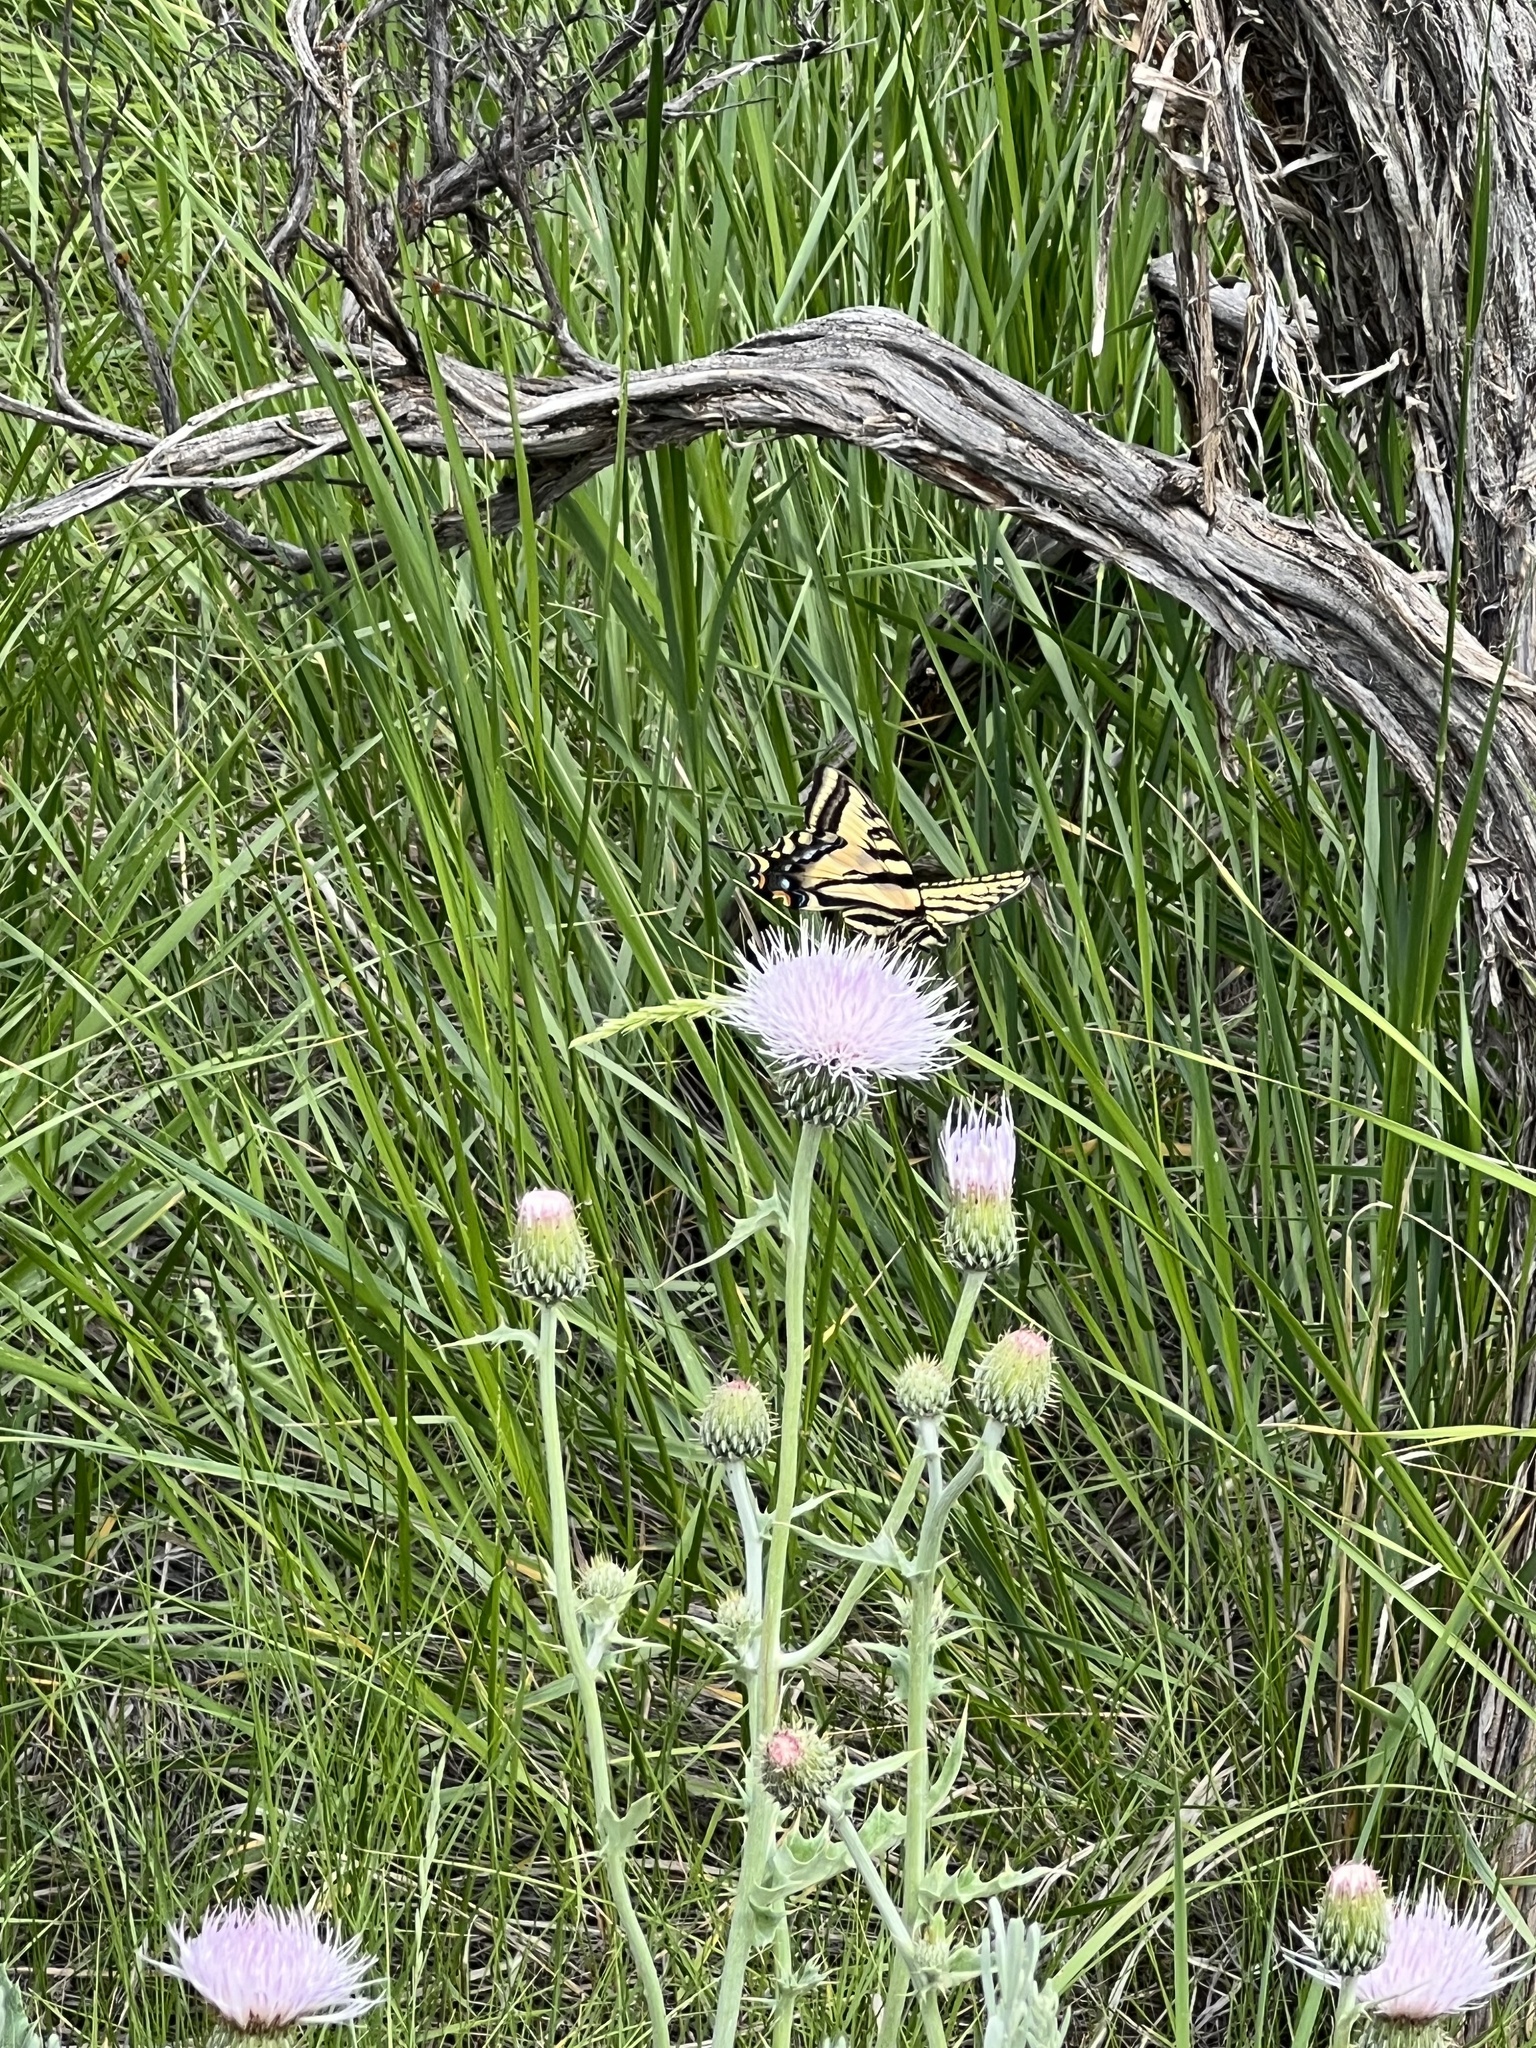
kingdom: Animalia
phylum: Arthropoda
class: Insecta
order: Lepidoptera
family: Papilionidae
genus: Papilio
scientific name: Papilio rutulus
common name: Western tiger swallowtail
